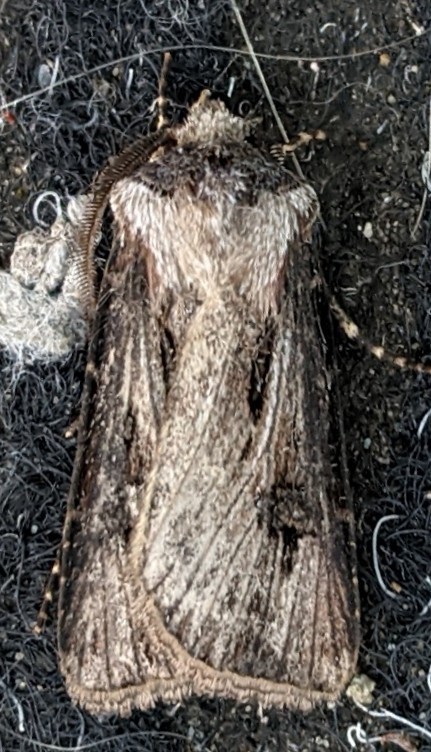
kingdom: Animalia
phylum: Arthropoda
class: Insecta
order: Lepidoptera
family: Noctuidae
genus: Agrotis
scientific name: Agrotis venerabilis
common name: Venerable dart
